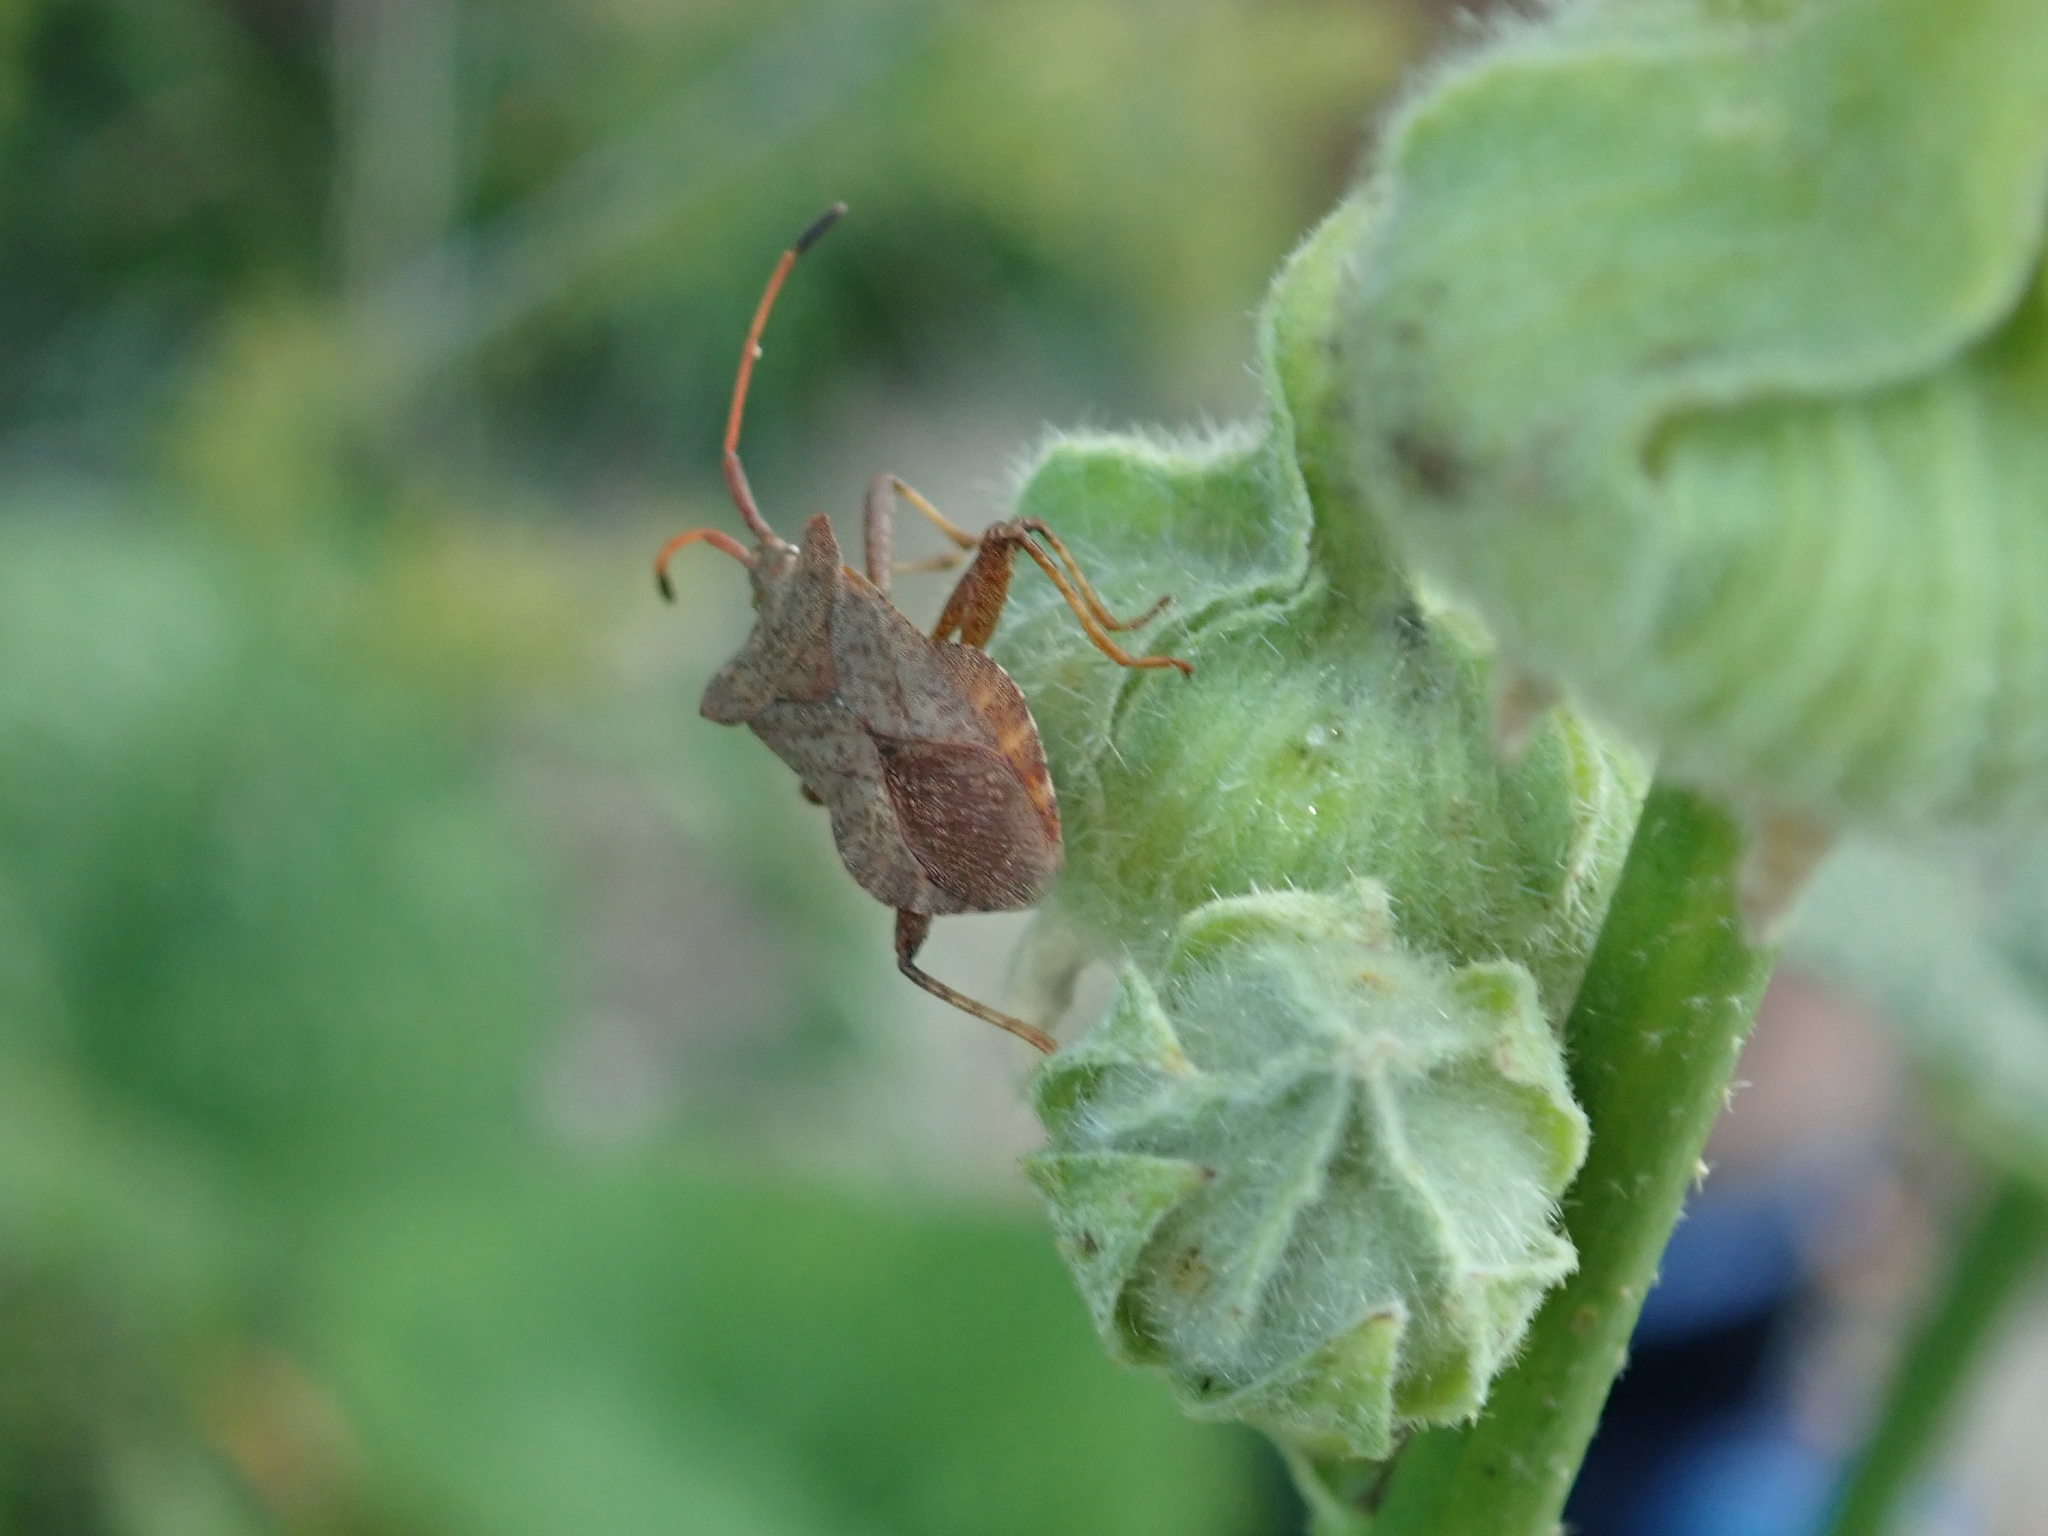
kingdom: Animalia
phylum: Arthropoda
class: Insecta
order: Hemiptera
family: Coreidae
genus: Coreus
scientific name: Coreus marginatus
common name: Dock bug
